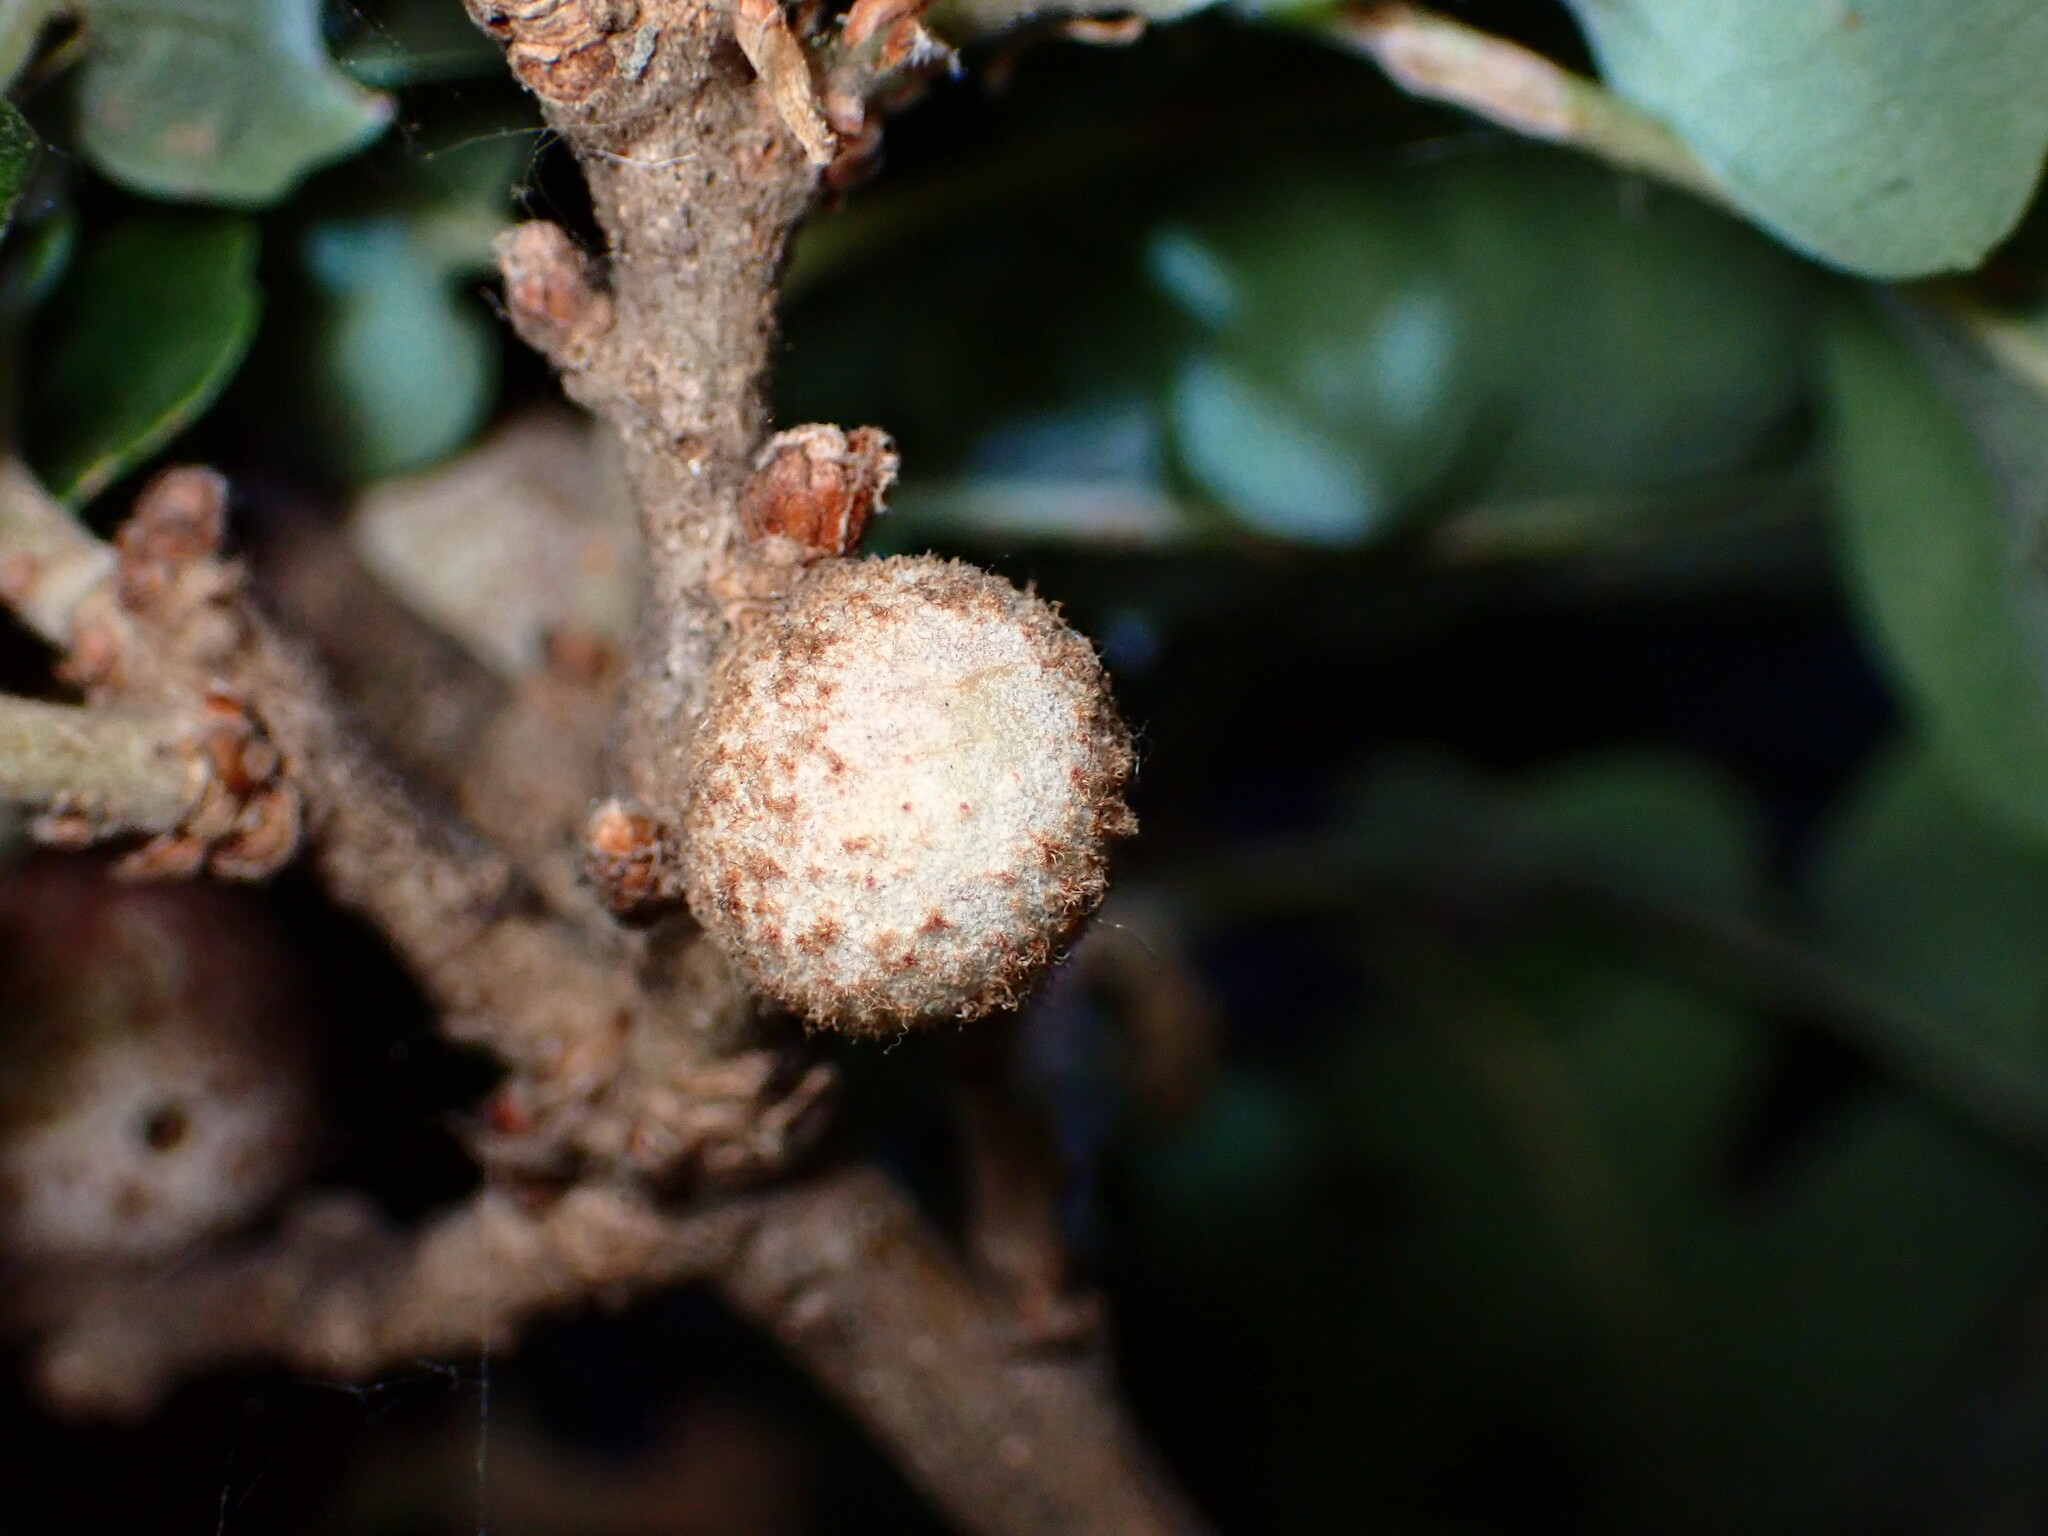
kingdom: Animalia
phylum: Arthropoda
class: Insecta
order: Hymenoptera
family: Cynipidae
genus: Burnettweldia
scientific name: Burnettweldia
